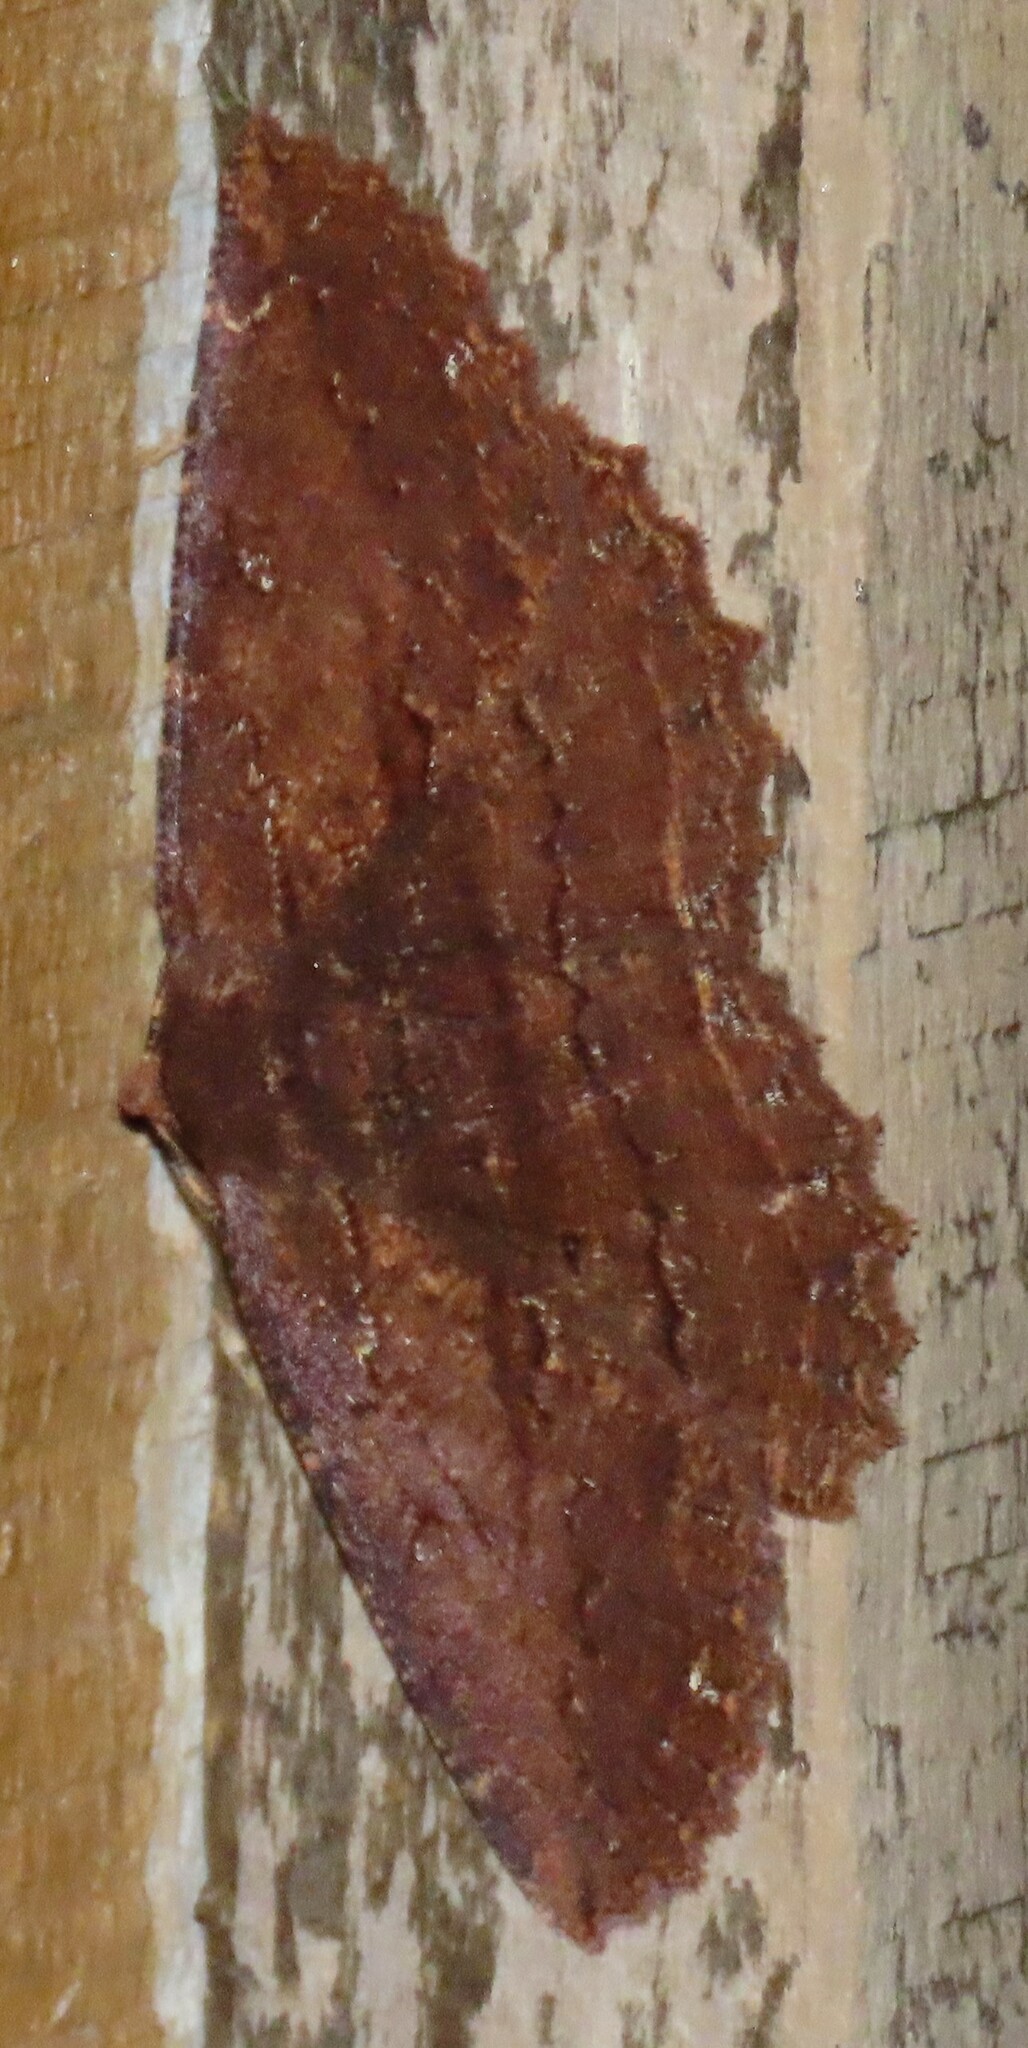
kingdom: Animalia
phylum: Arthropoda
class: Insecta
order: Lepidoptera
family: Geometridae
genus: Gellonia
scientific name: Gellonia dejectaria
